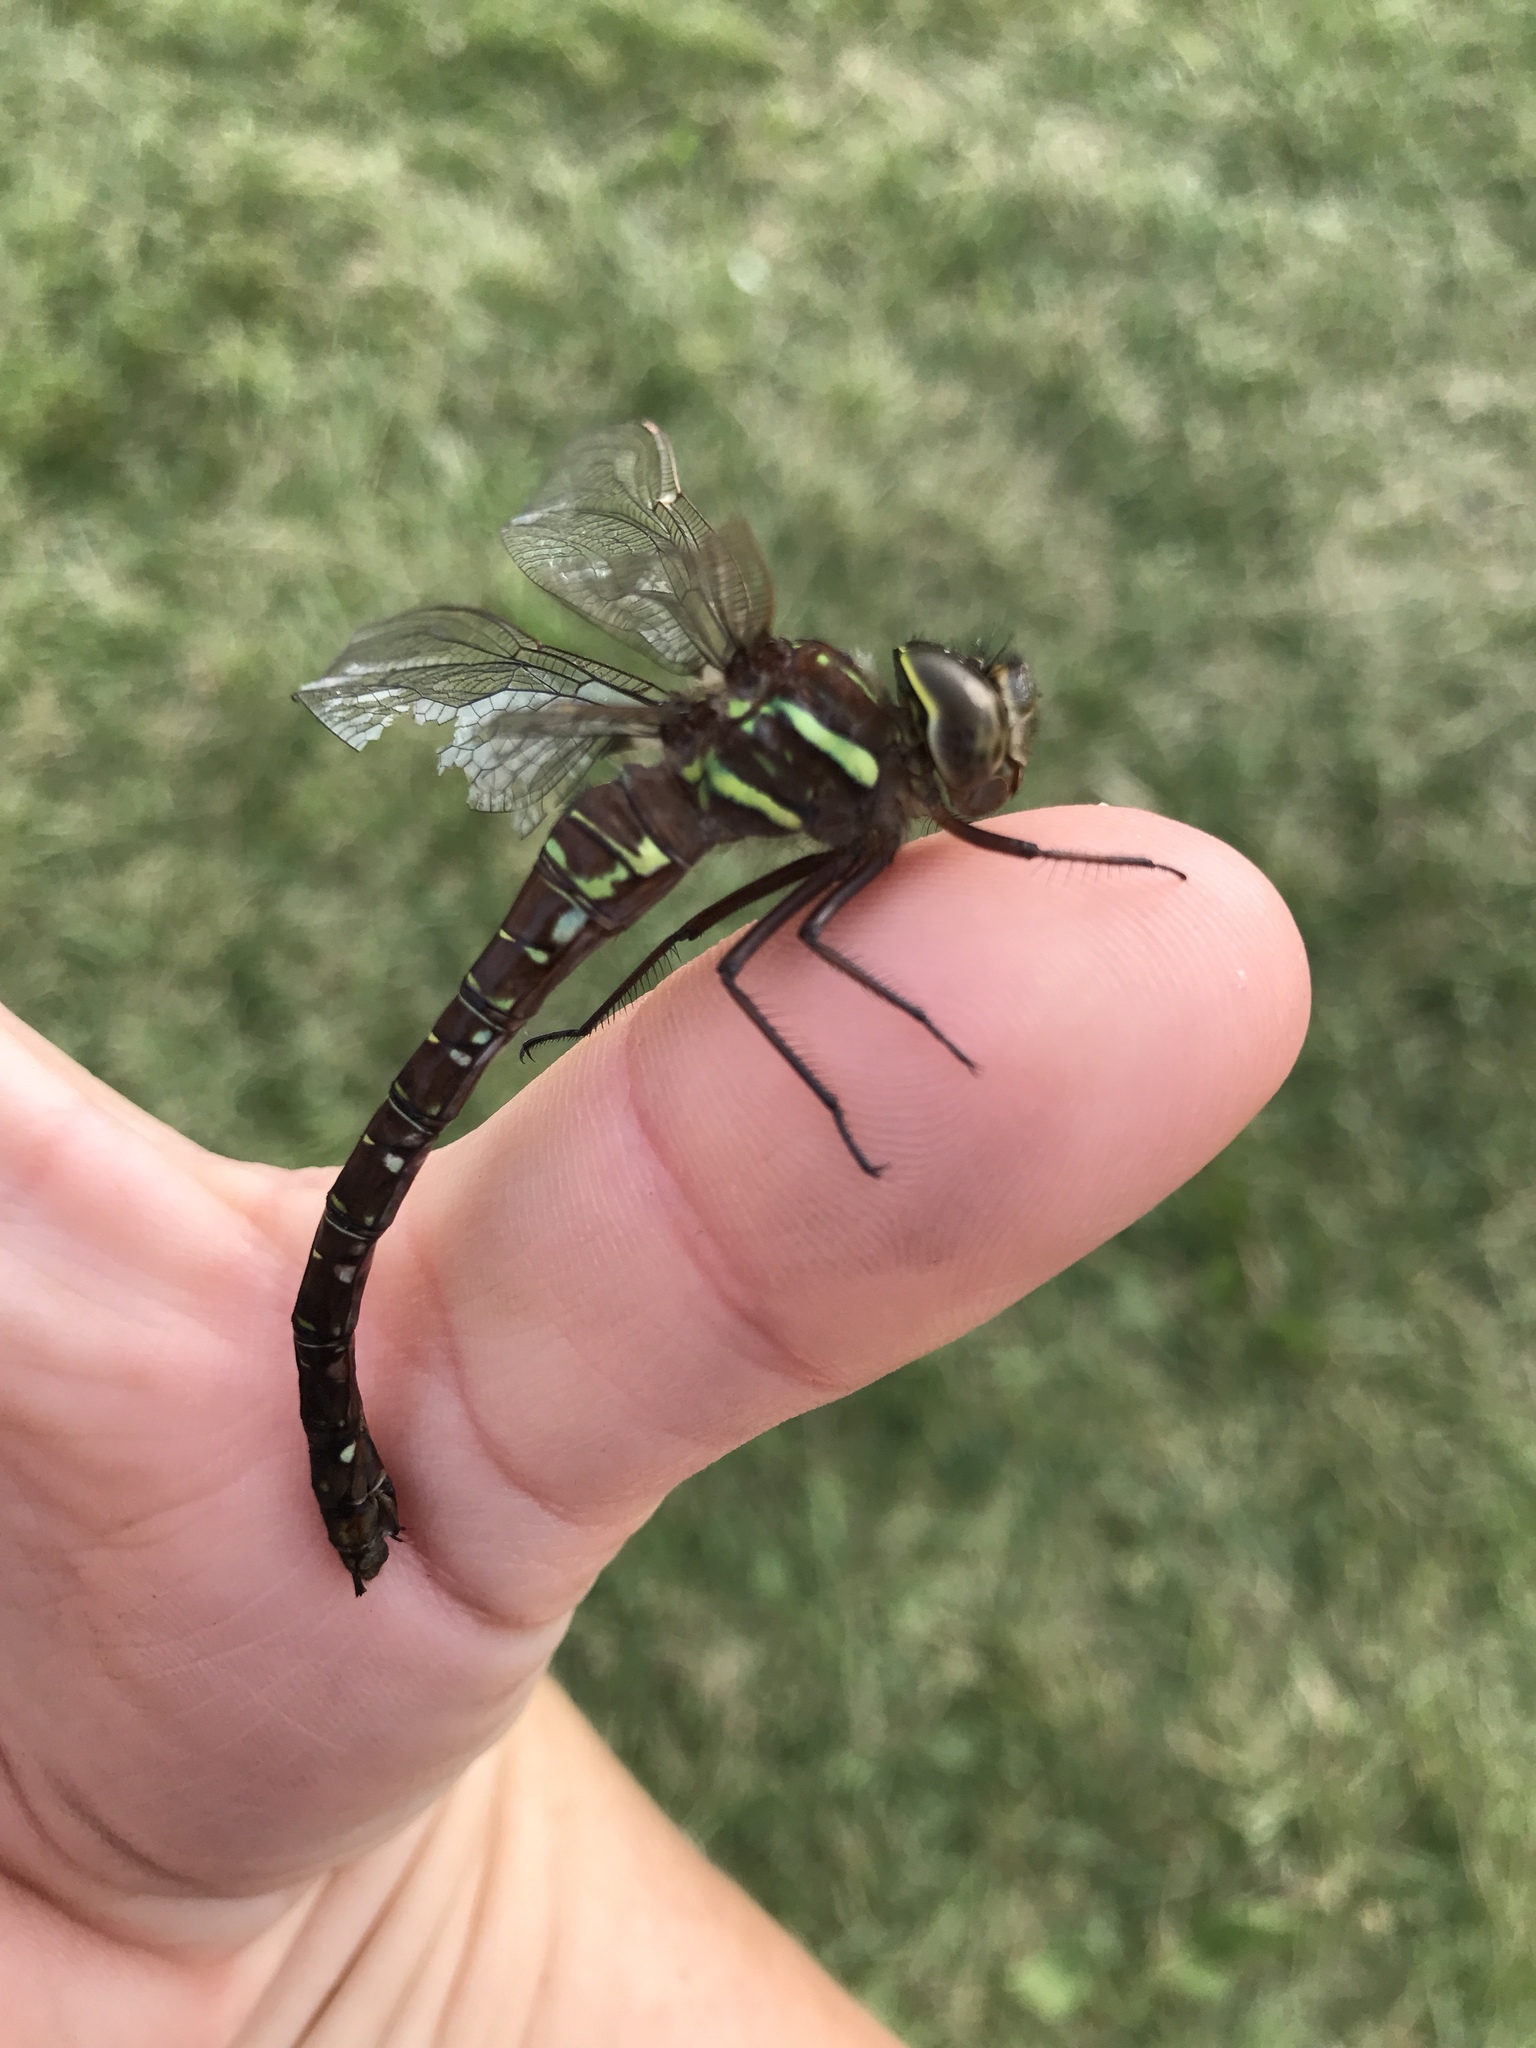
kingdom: Animalia
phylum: Arthropoda
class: Insecta
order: Odonata
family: Aeshnidae
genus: Aeshna
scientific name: Aeshna umbrosa
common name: Shadow darner
